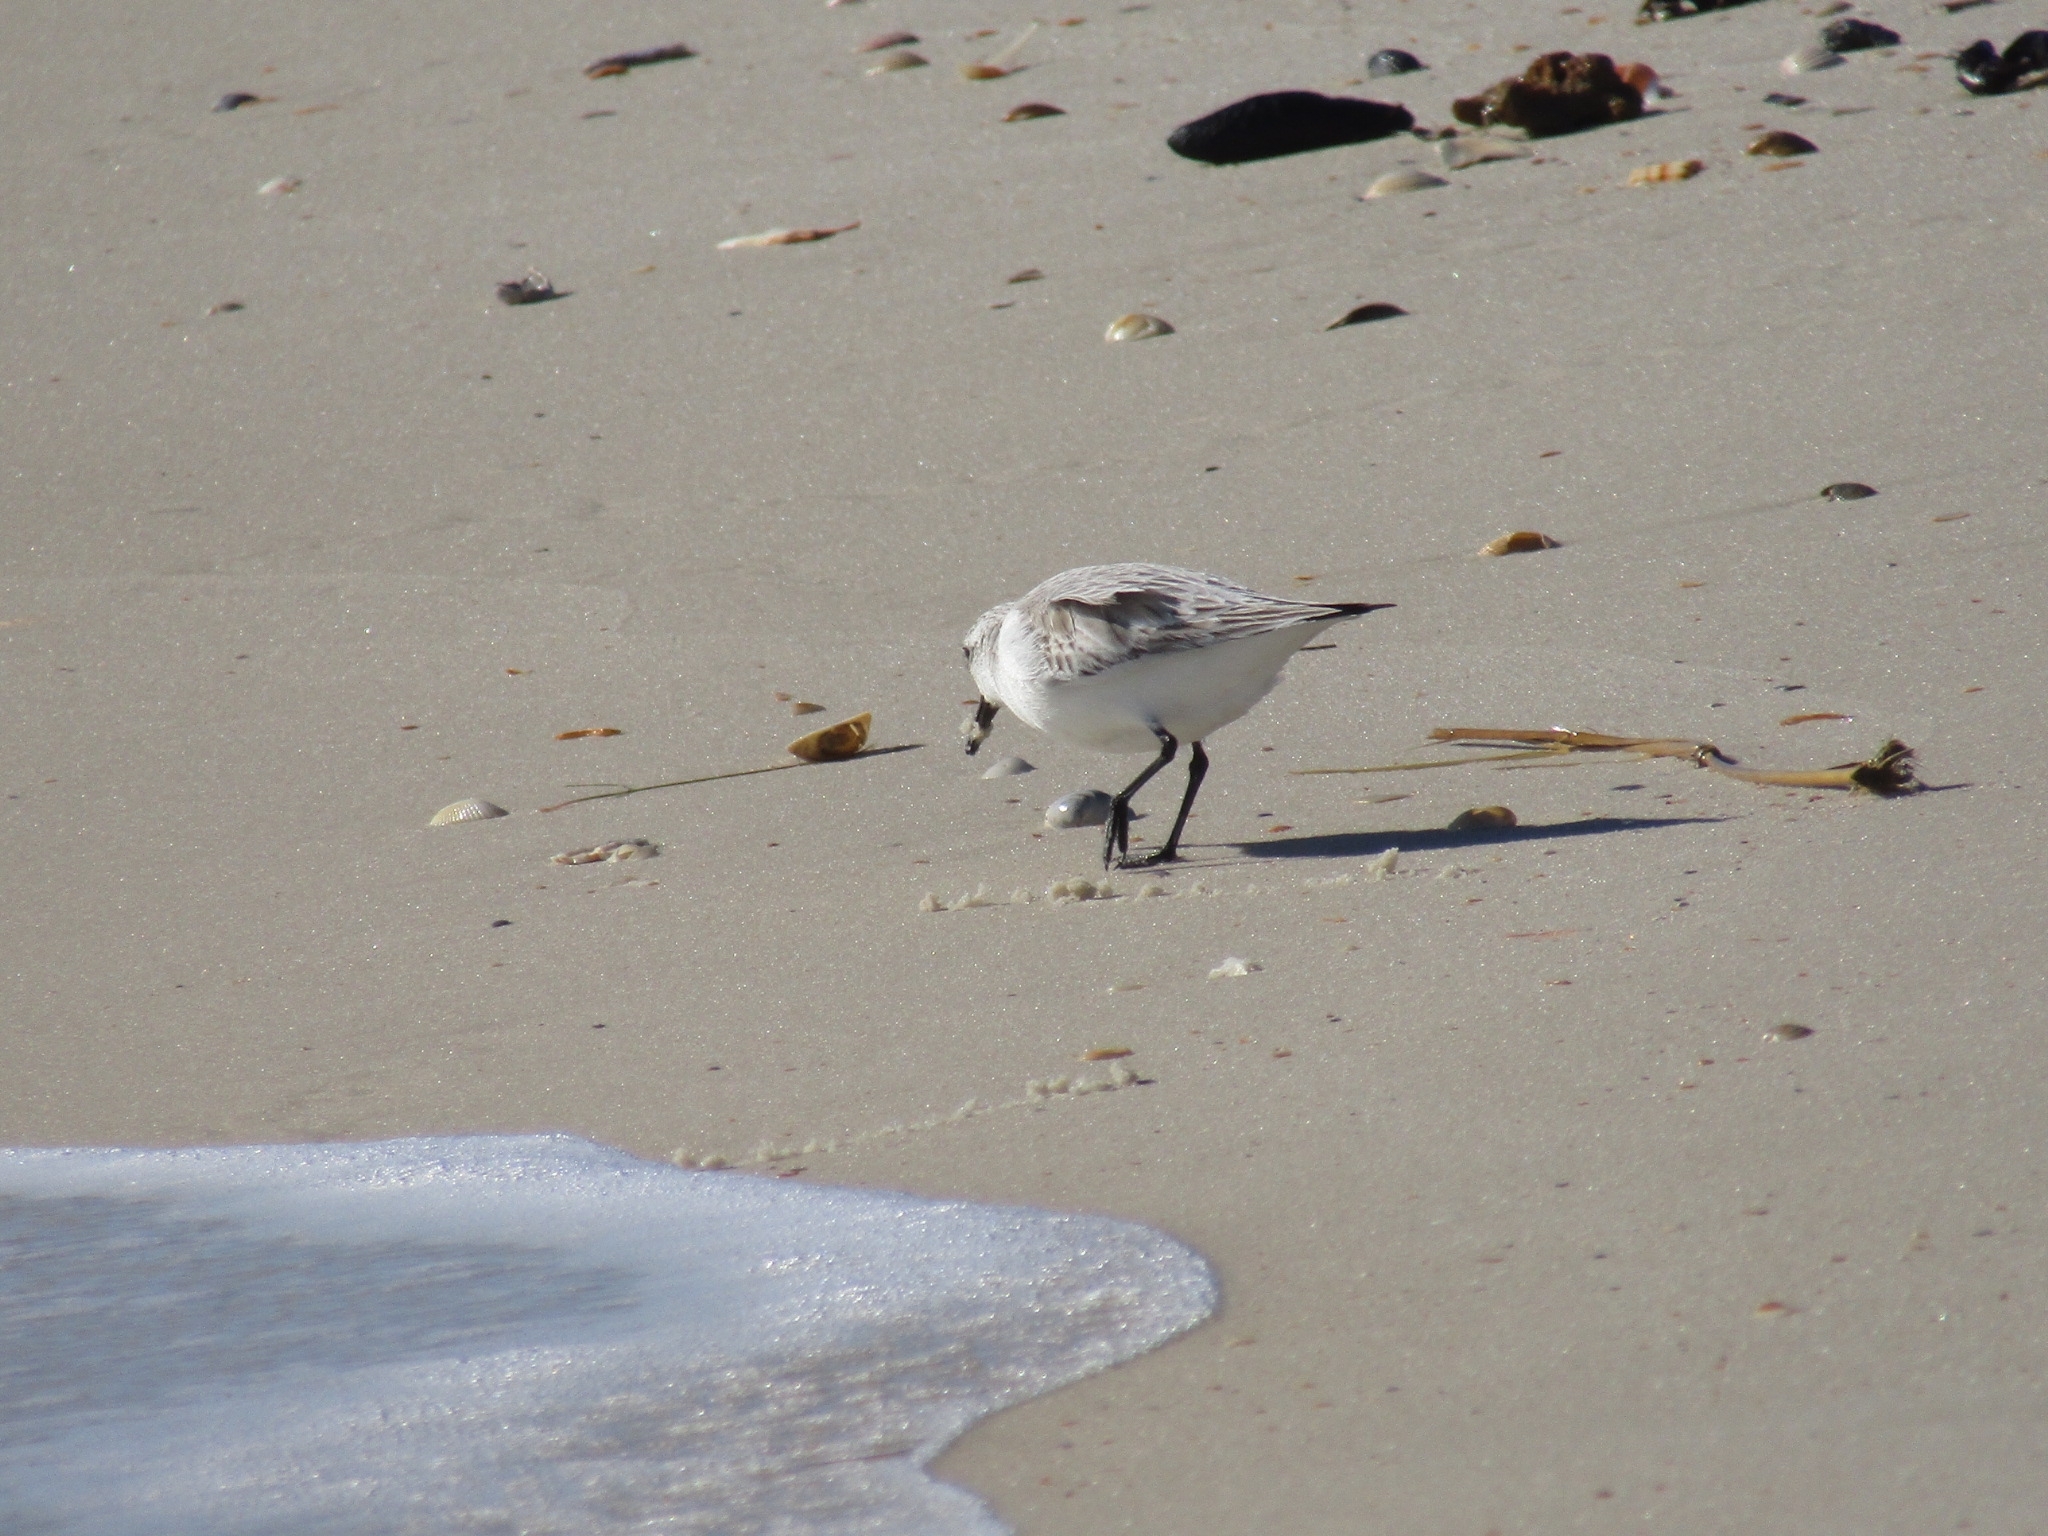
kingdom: Animalia
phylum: Chordata
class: Aves
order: Charadriiformes
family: Scolopacidae
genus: Calidris
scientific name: Calidris alba
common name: Sanderling
